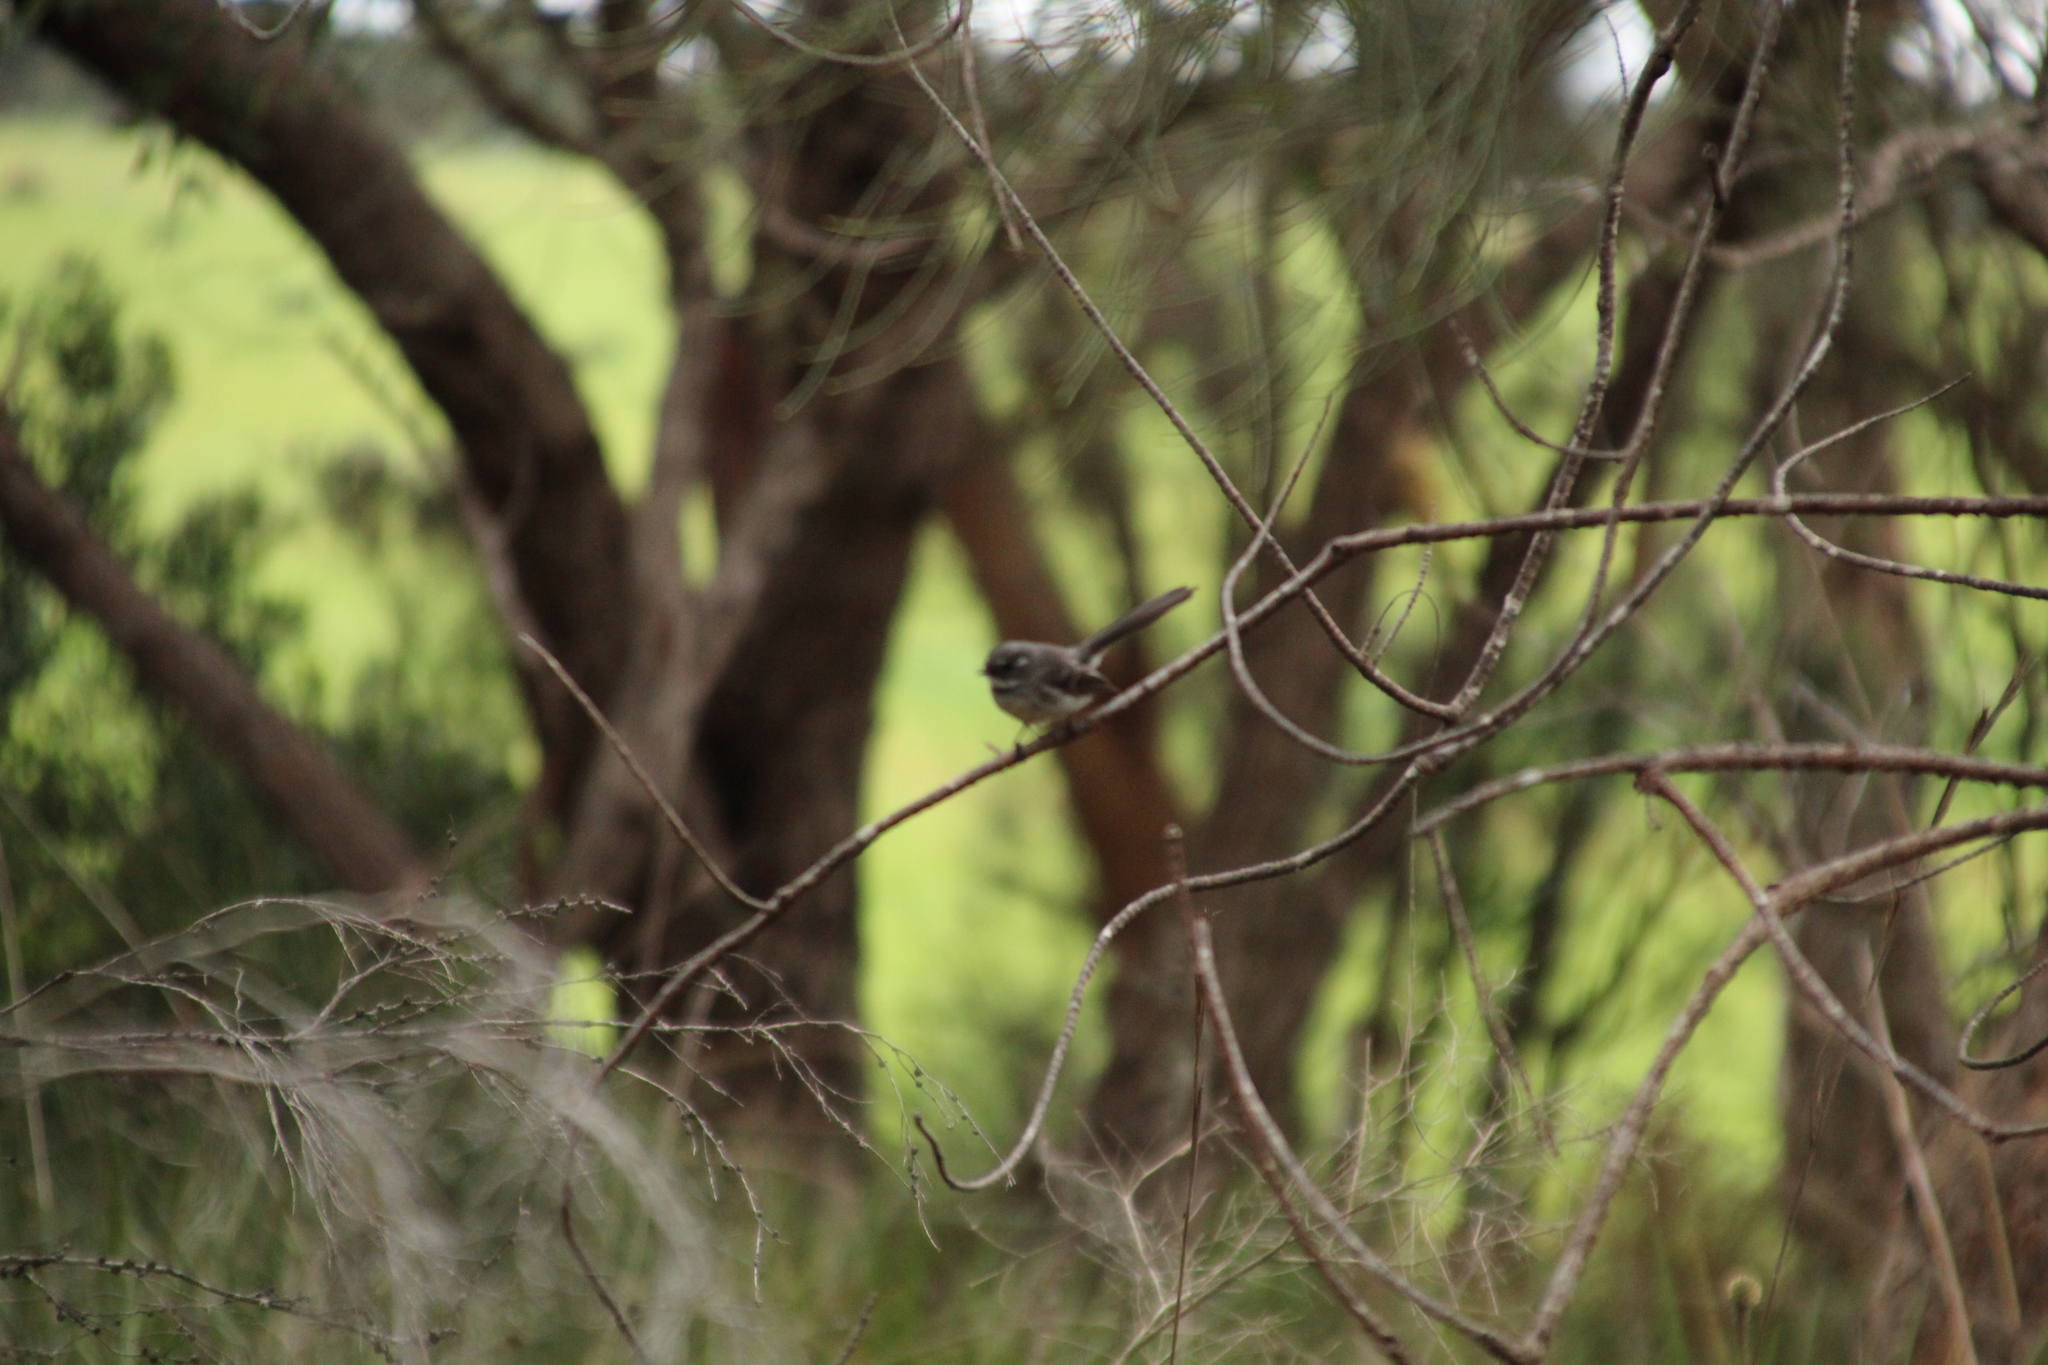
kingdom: Animalia
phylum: Chordata
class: Aves
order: Passeriformes
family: Rhipiduridae
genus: Rhipidura
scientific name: Rhipidura albiscapa
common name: Grey fantail
